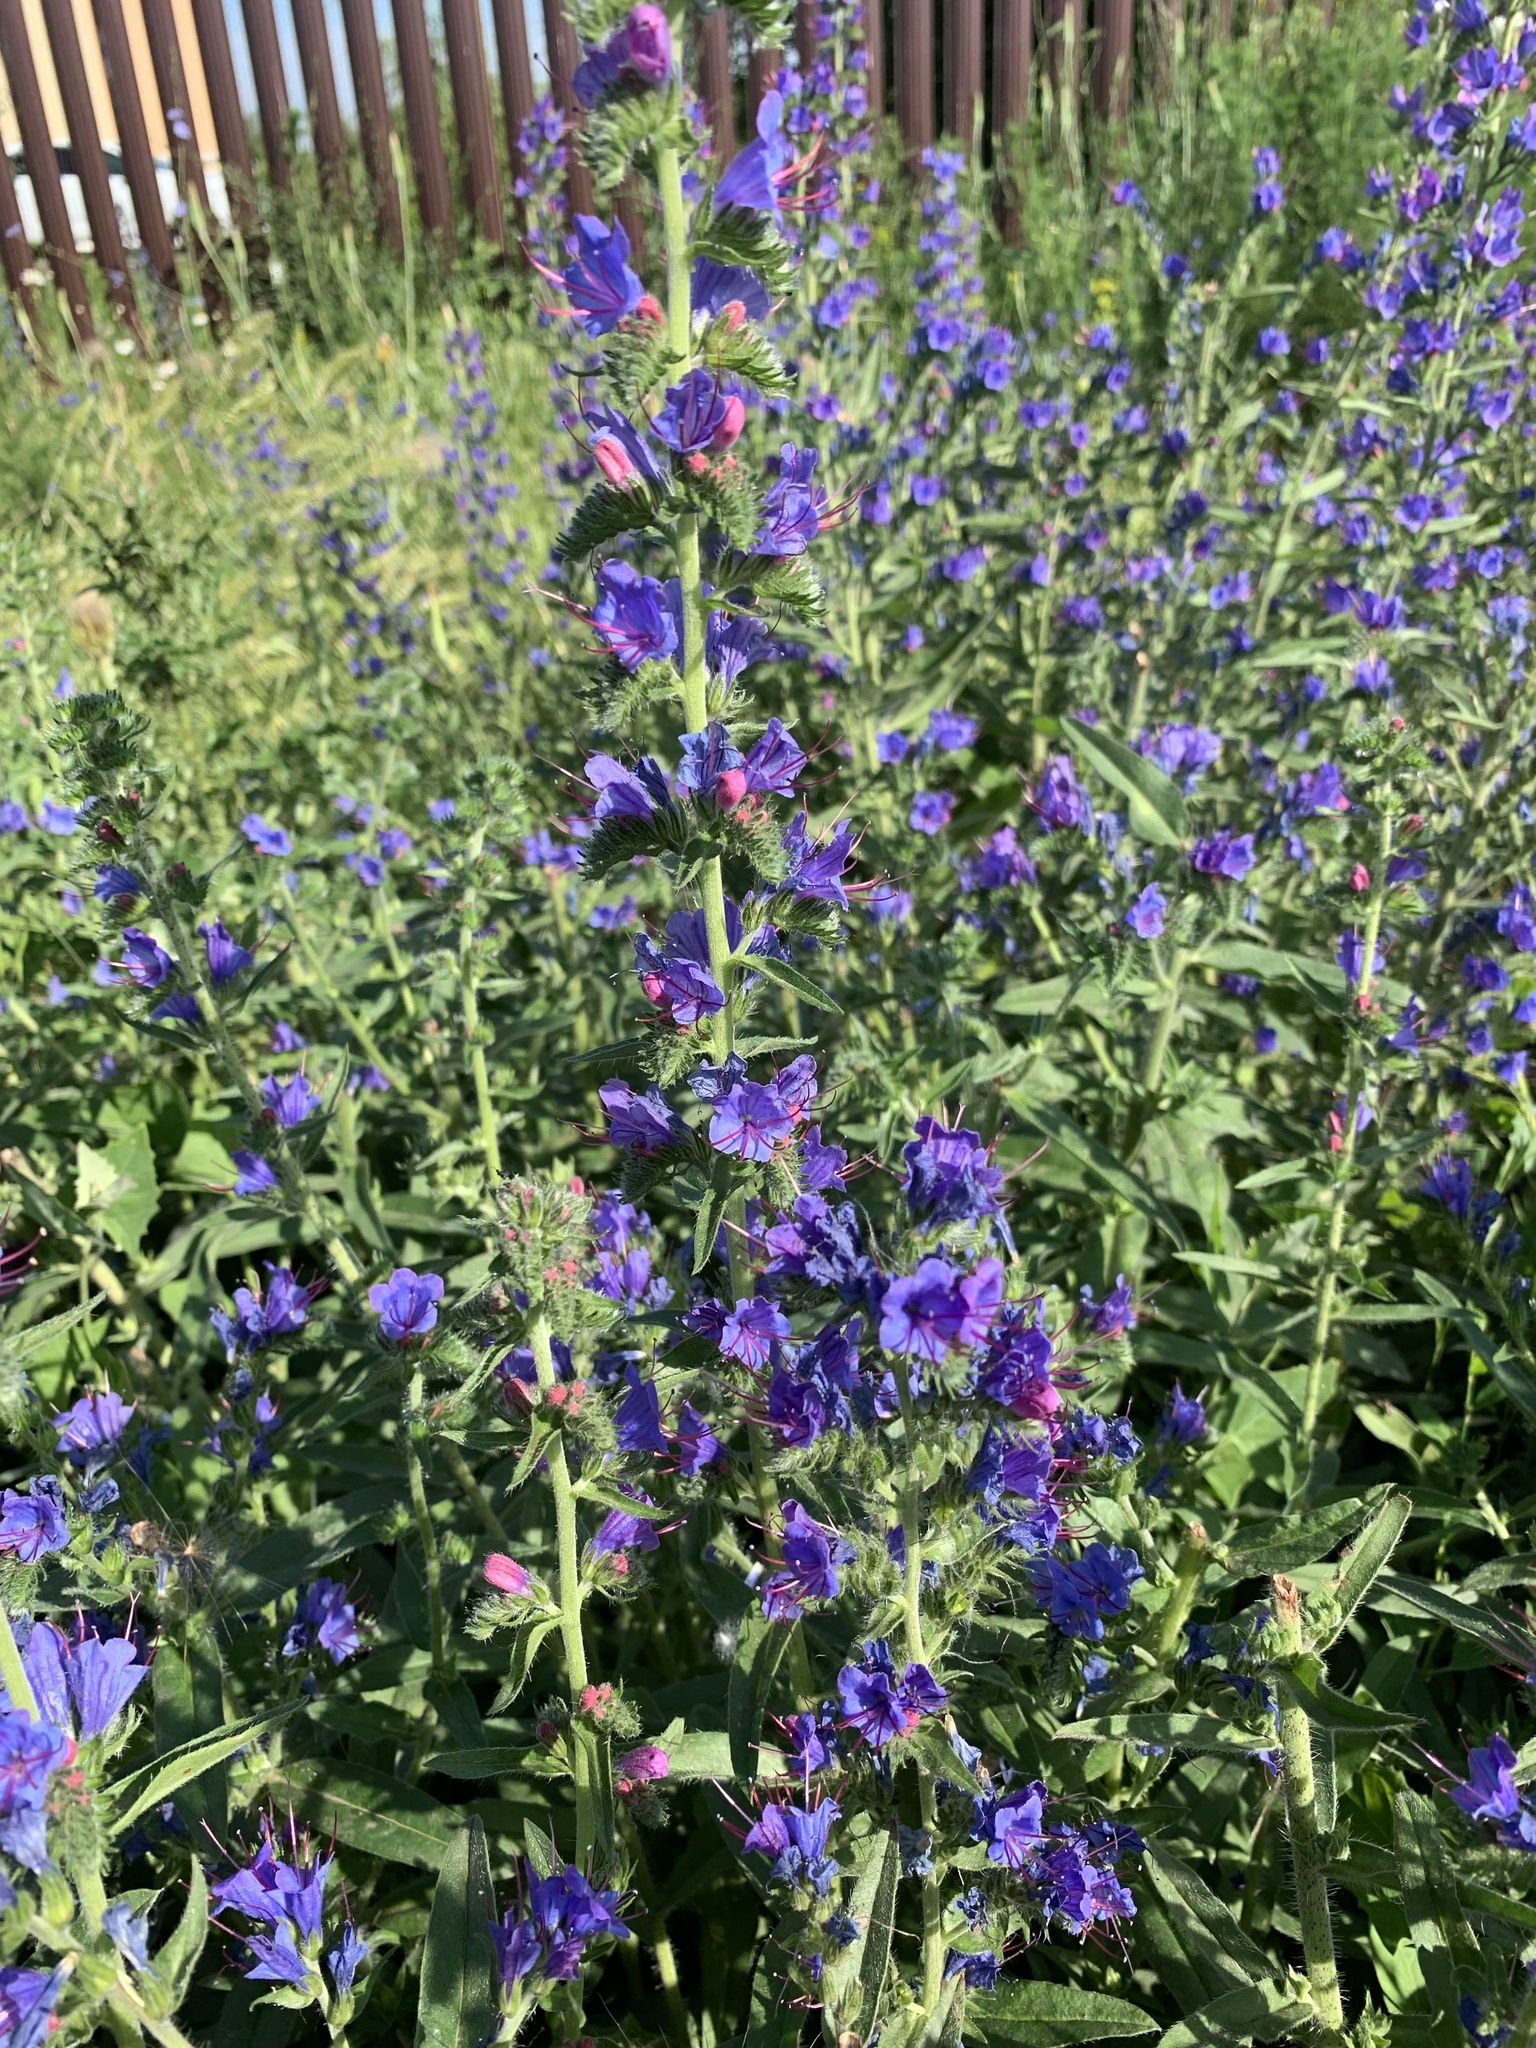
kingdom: Plantae
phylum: Tracheophyta
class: Magnoliopsida
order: Boraginales
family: Boraginaceae
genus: Echium
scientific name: Echium vulgare
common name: Common viper's bugloss
